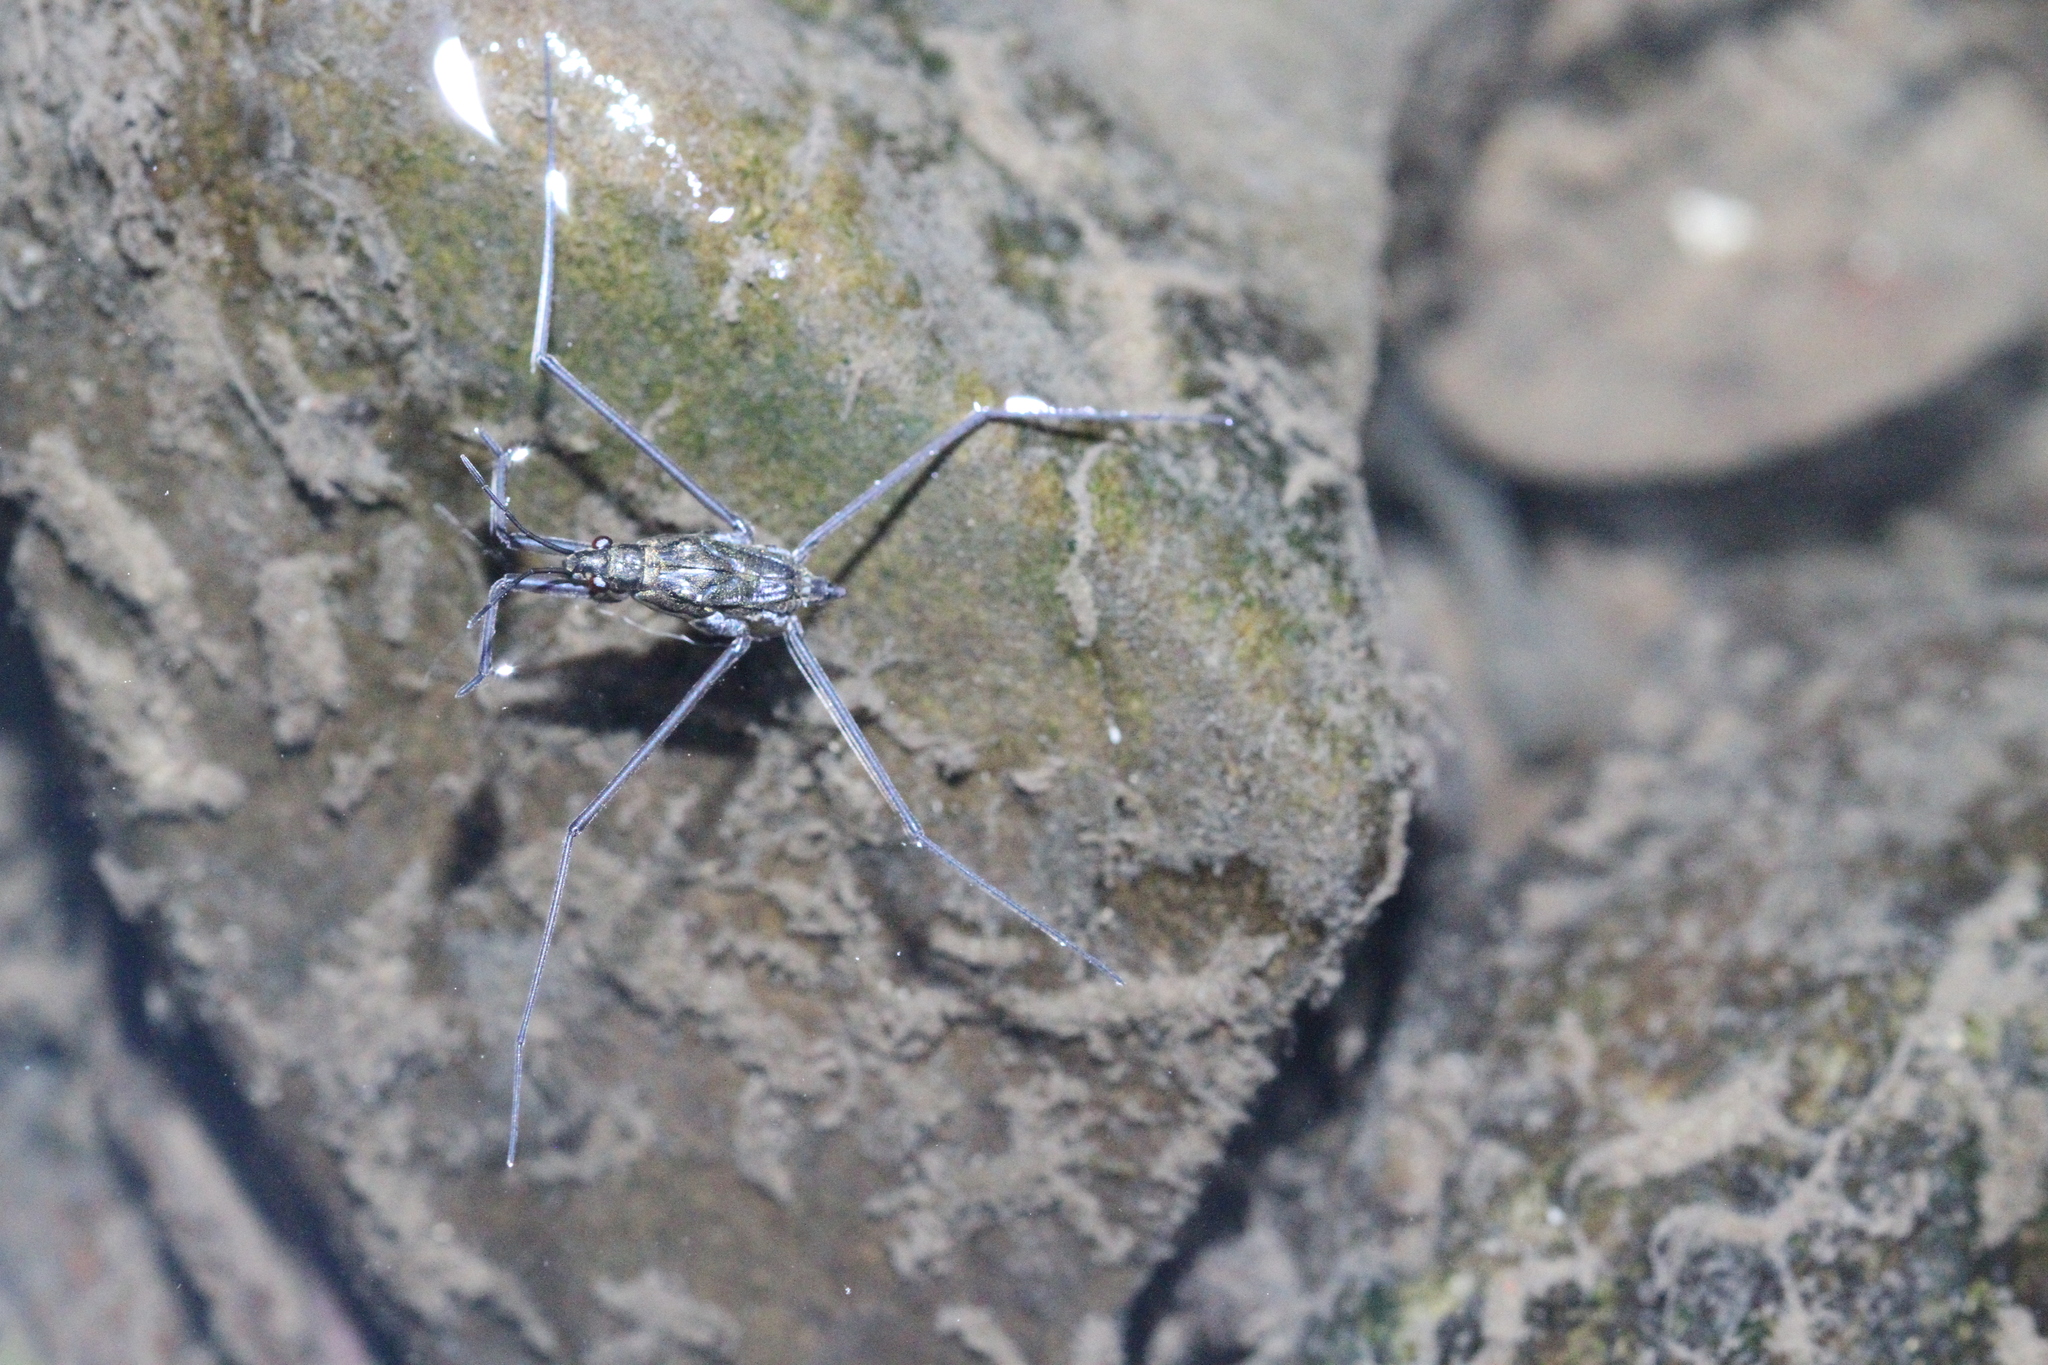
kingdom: Animalia
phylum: Arthropoda
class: Insecta
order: Hemiptera
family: Gerridae
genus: Aquarius
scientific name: Aquarius remigis
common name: Common water strider
